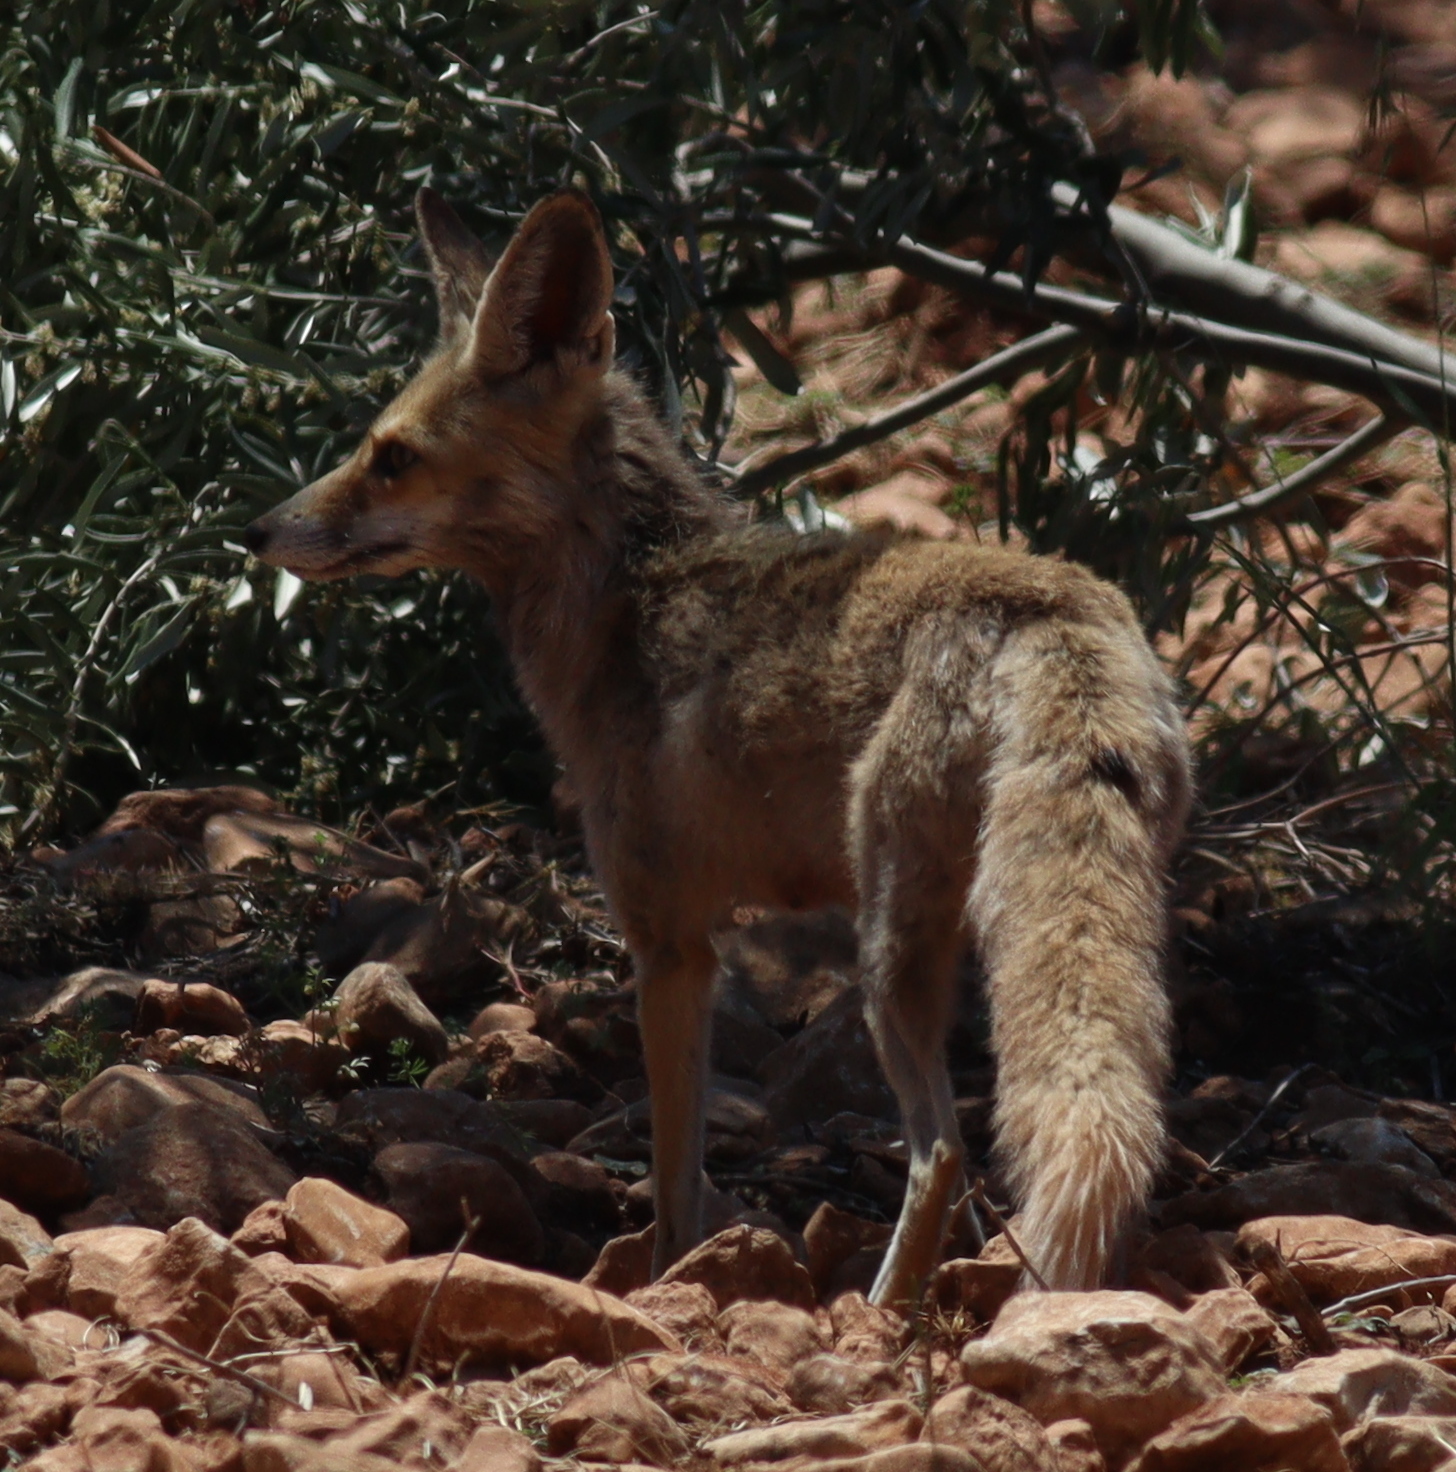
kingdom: Animalia
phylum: Chordata
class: Mammalia
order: Carnivora
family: Canidae
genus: Vulpes
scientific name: Vulpes vulpes
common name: Red fox
